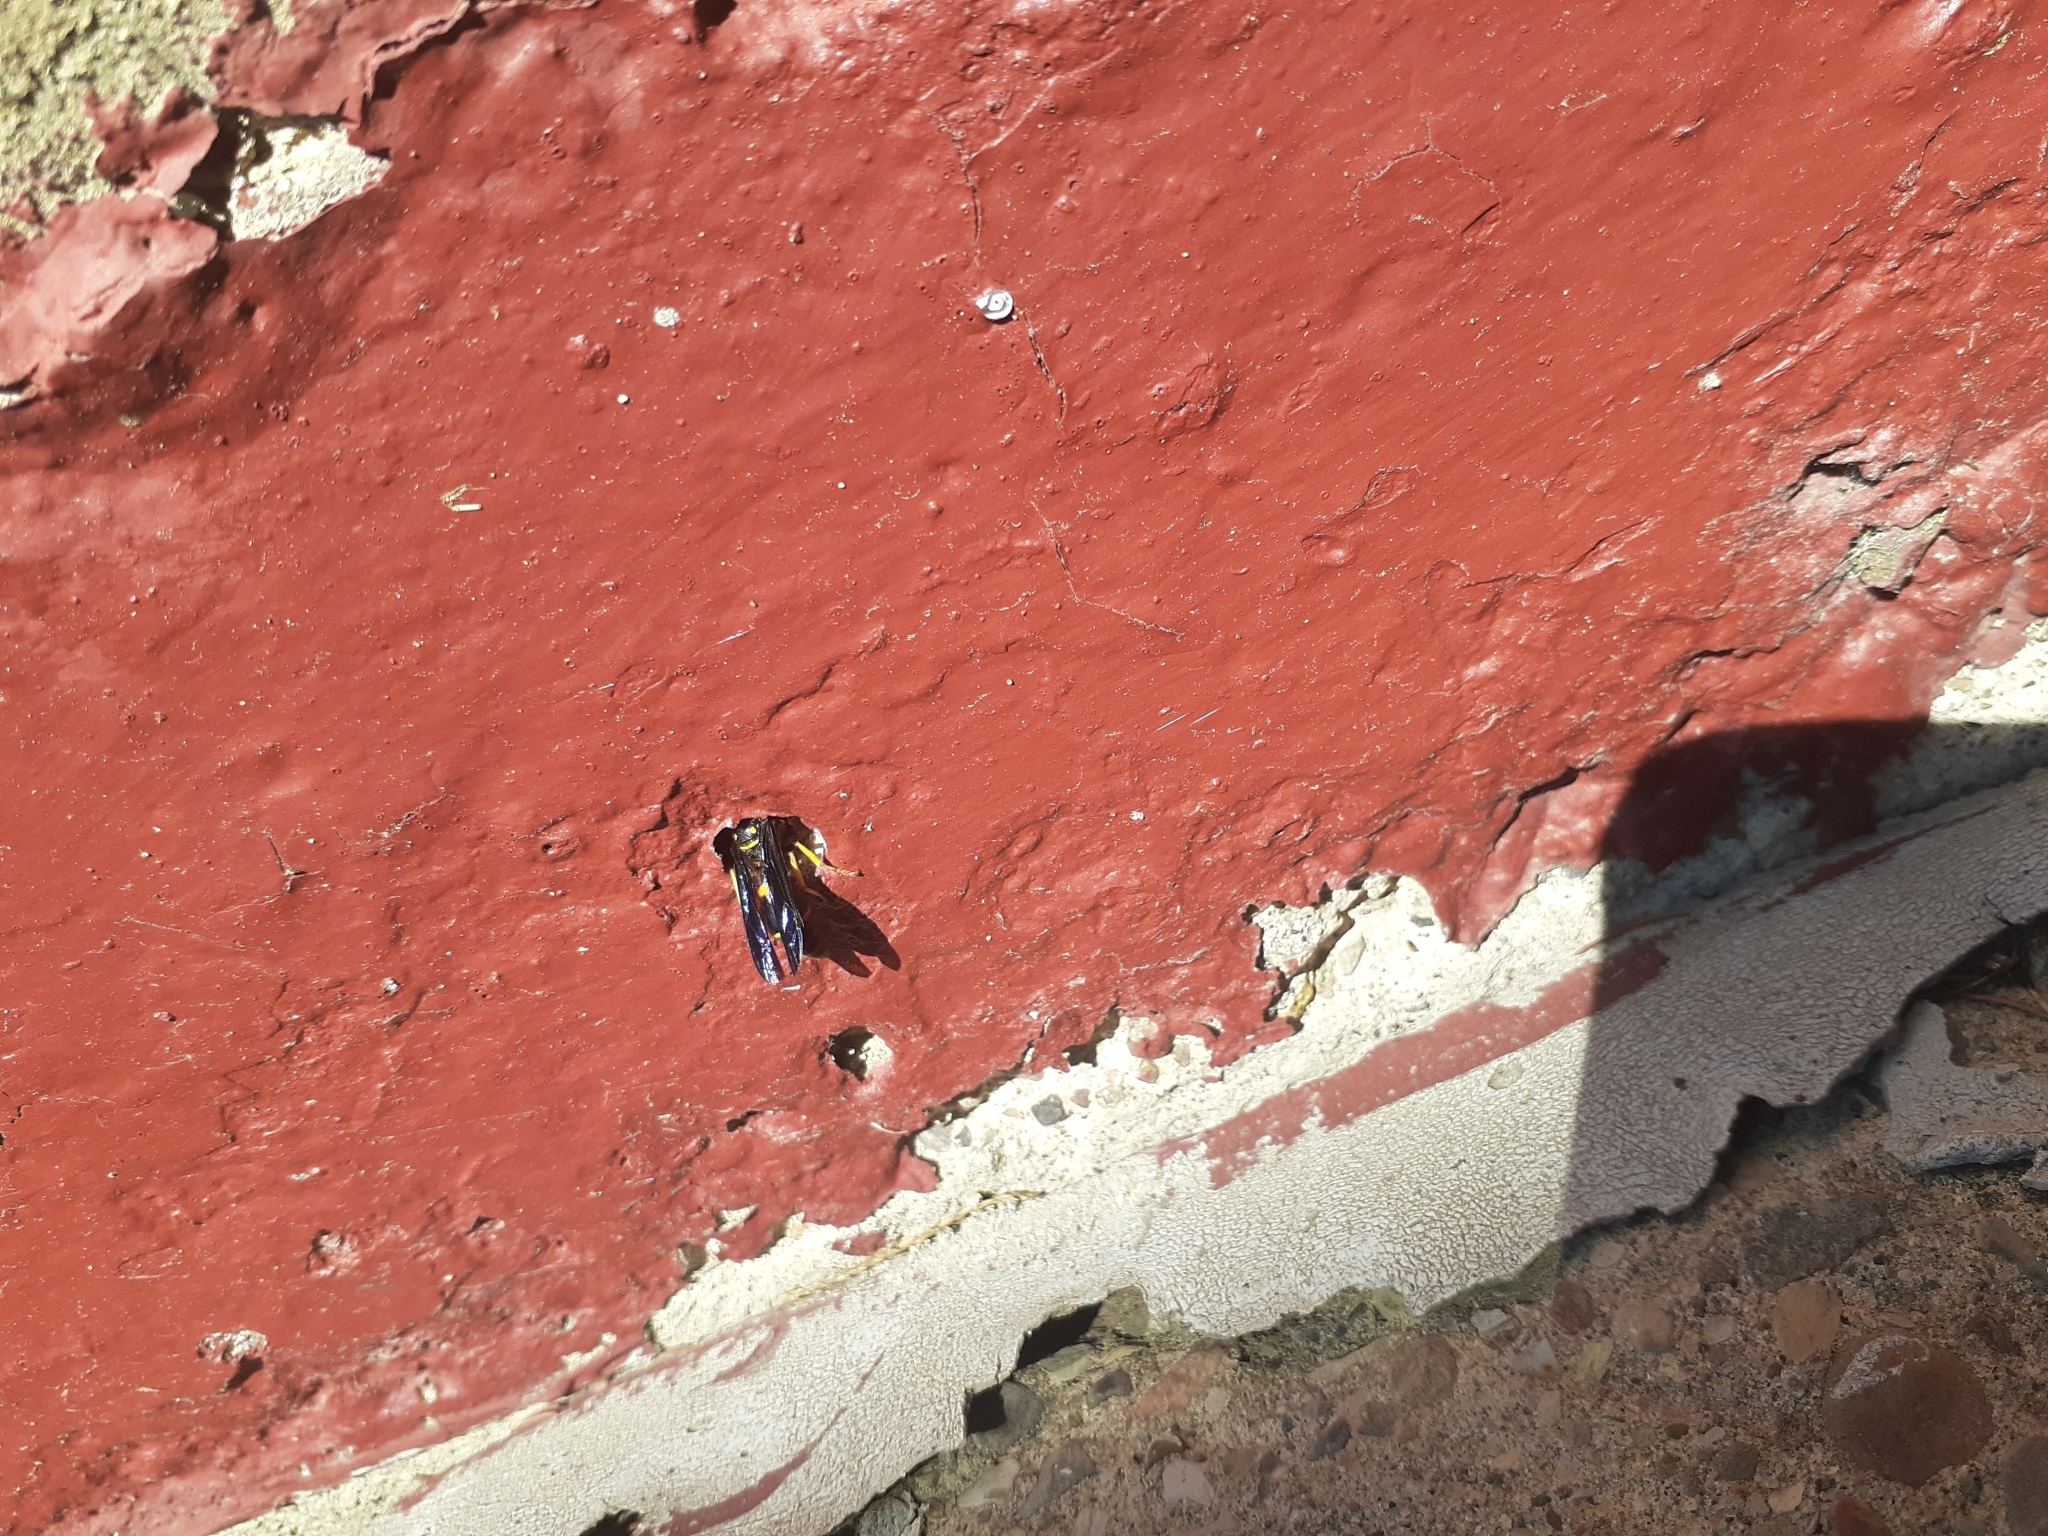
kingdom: Animalia
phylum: Arthropoda
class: Insecta
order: Hymenoptera
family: Eumenidae
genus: Parazumia
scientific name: Parazumia symmorpha
